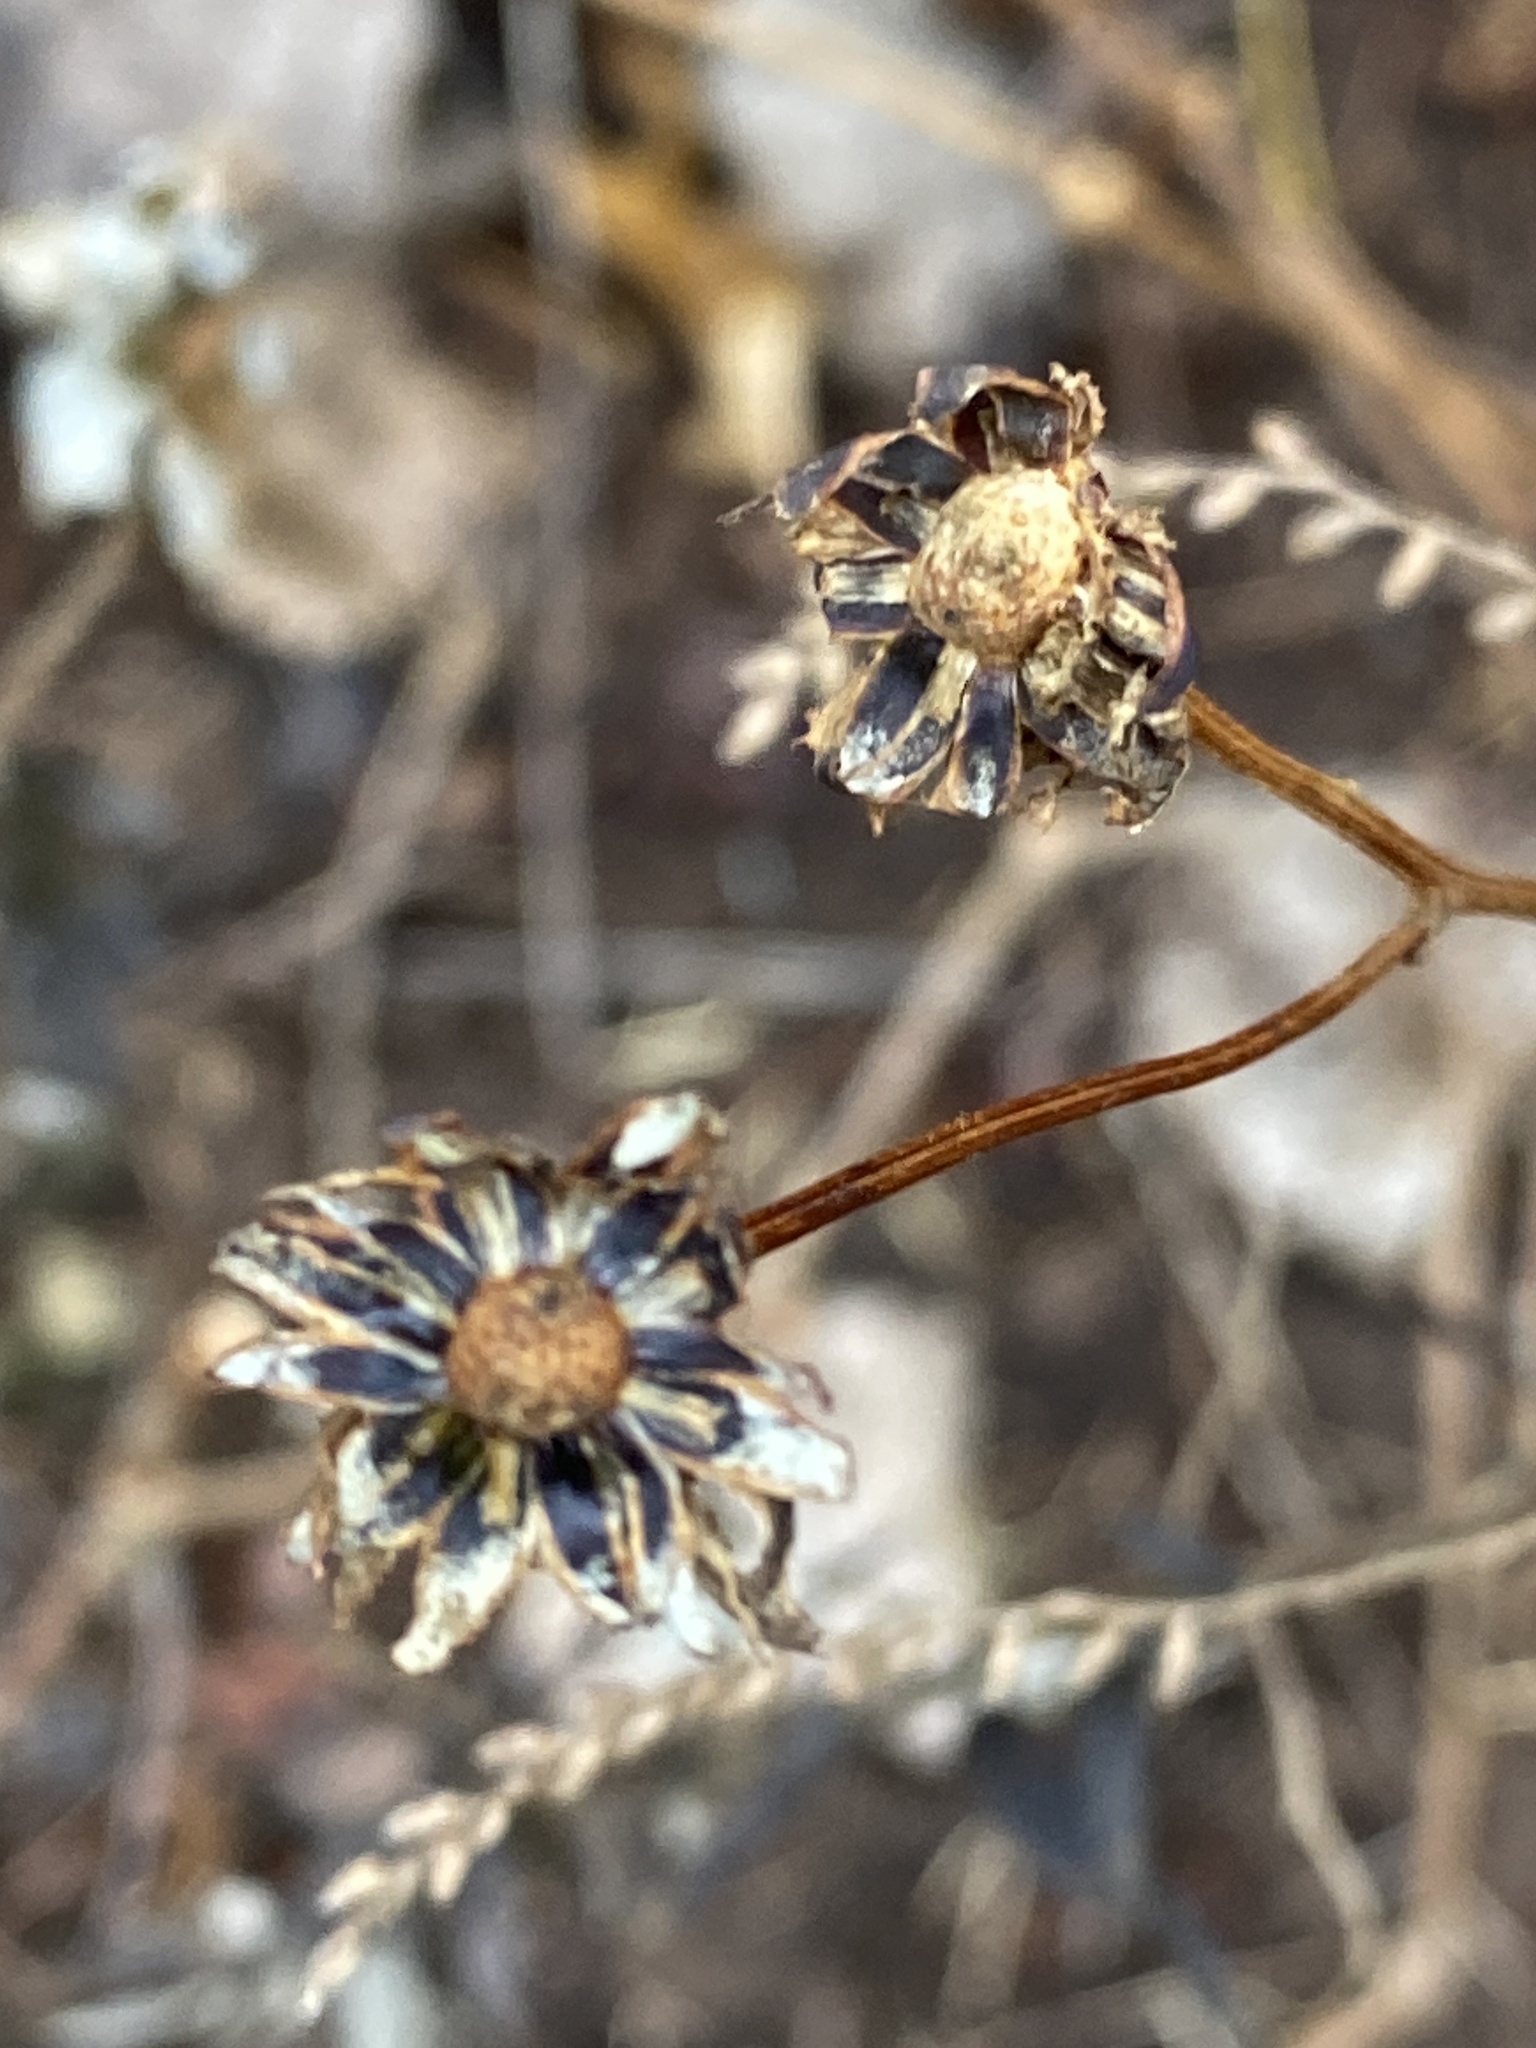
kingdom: Plantae
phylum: Tracheophyta
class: Magnoliopsida
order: Asterales
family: Asteraceae
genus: Bidens
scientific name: Bidens polylepis
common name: Awnless beggarticks
